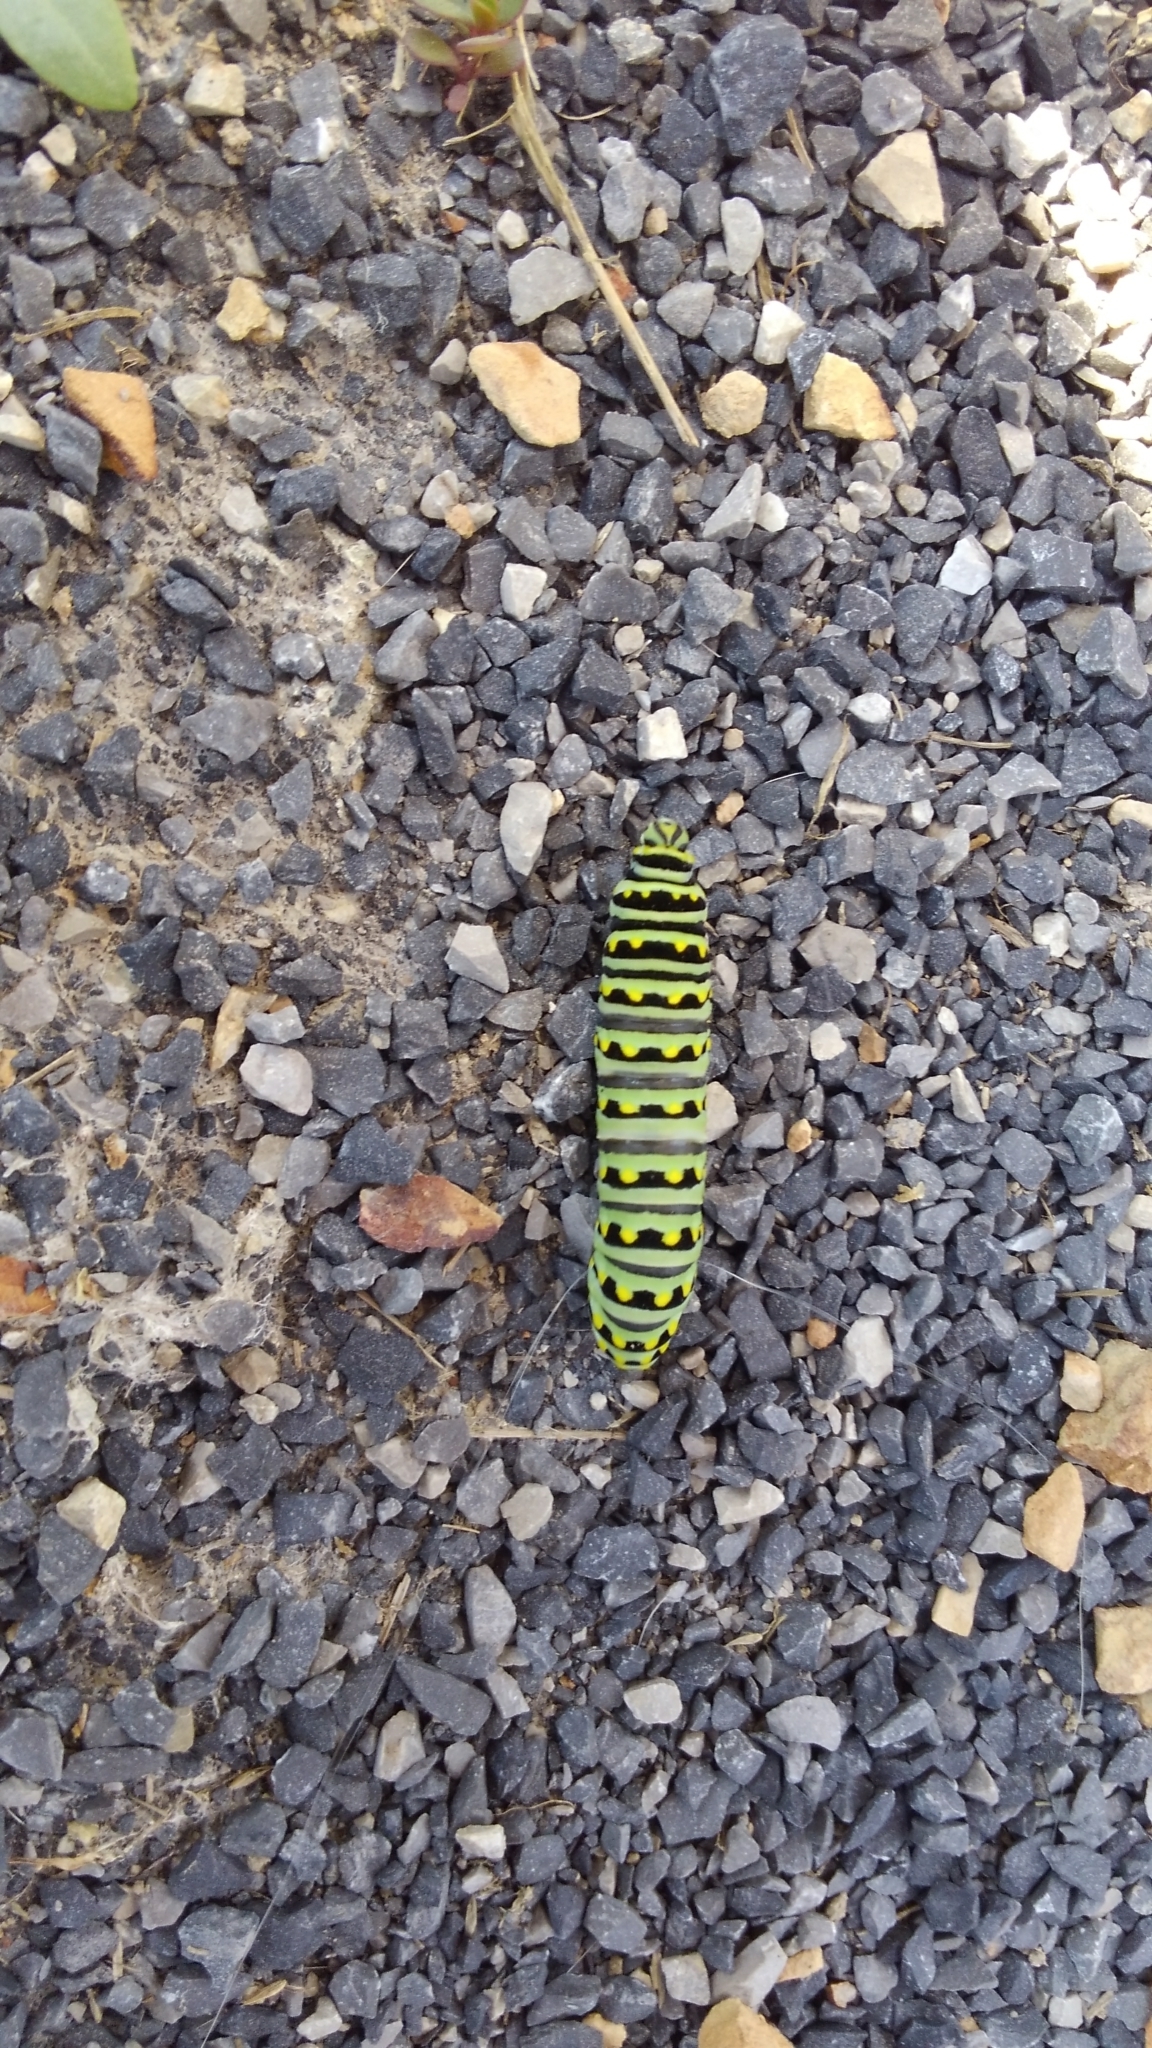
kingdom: Animalia
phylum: Arthropoda
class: Insecta
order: Lepidoptera
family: Papilionidae
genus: Papilio
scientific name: Papilio polyxenes
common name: Black swallowtail
